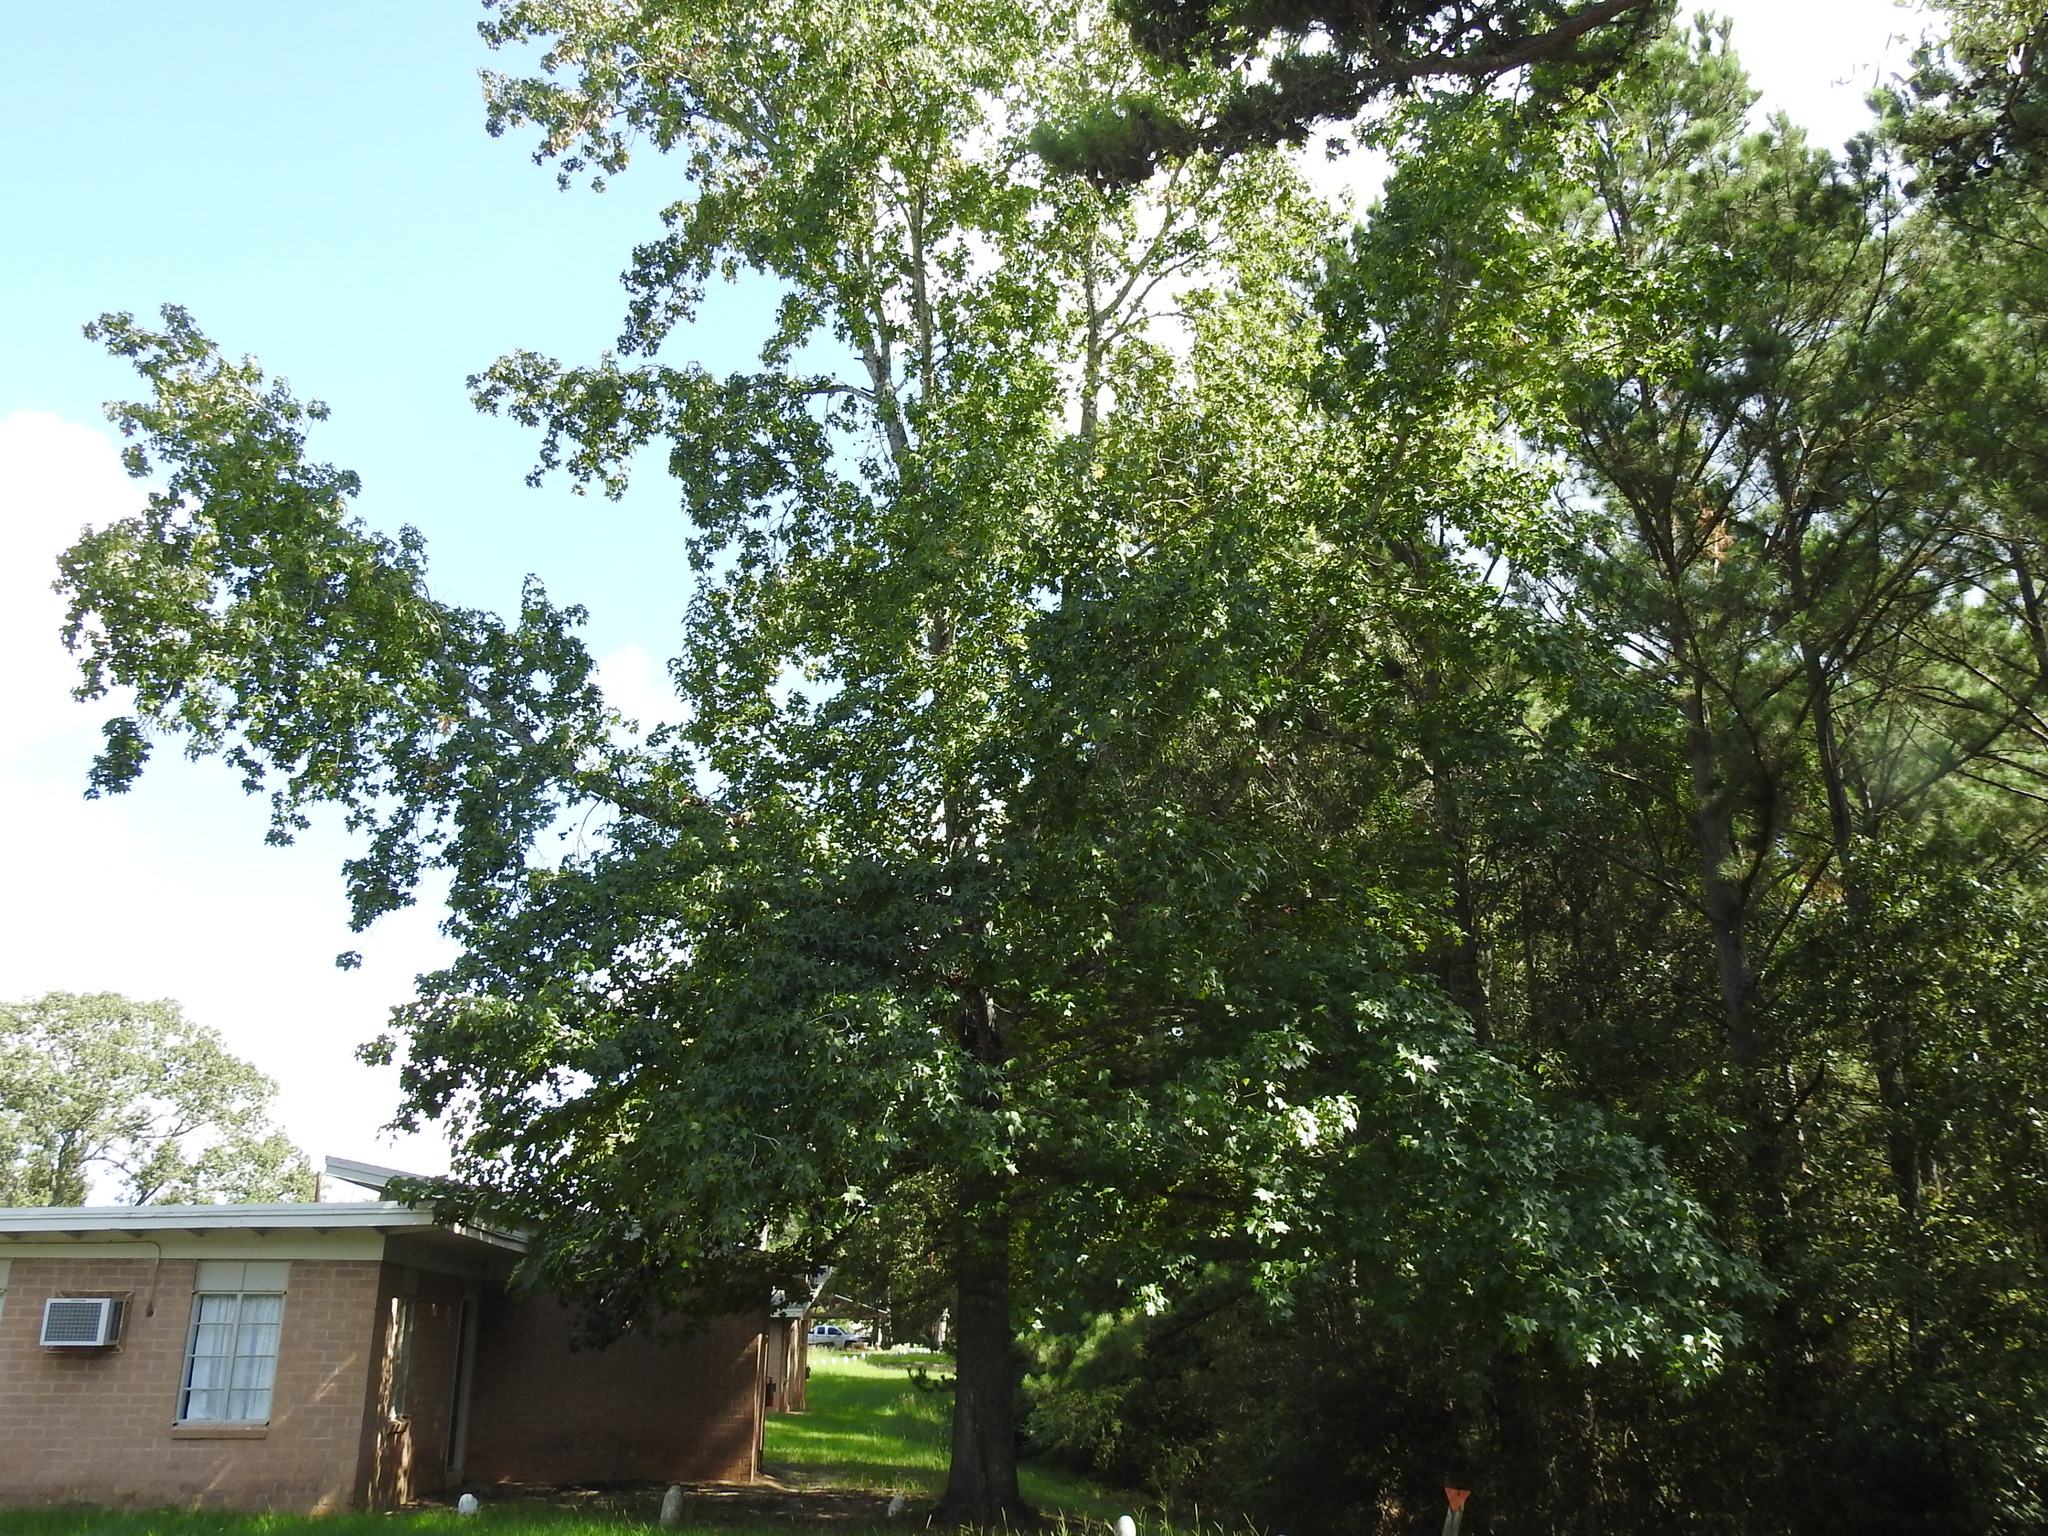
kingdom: Plantae
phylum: Tracheophyta
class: Magnoliopsida
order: Saxifragales
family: Altingiaceae
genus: Liquidambar
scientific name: Liquidambar styraciflua
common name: Sweet gum
